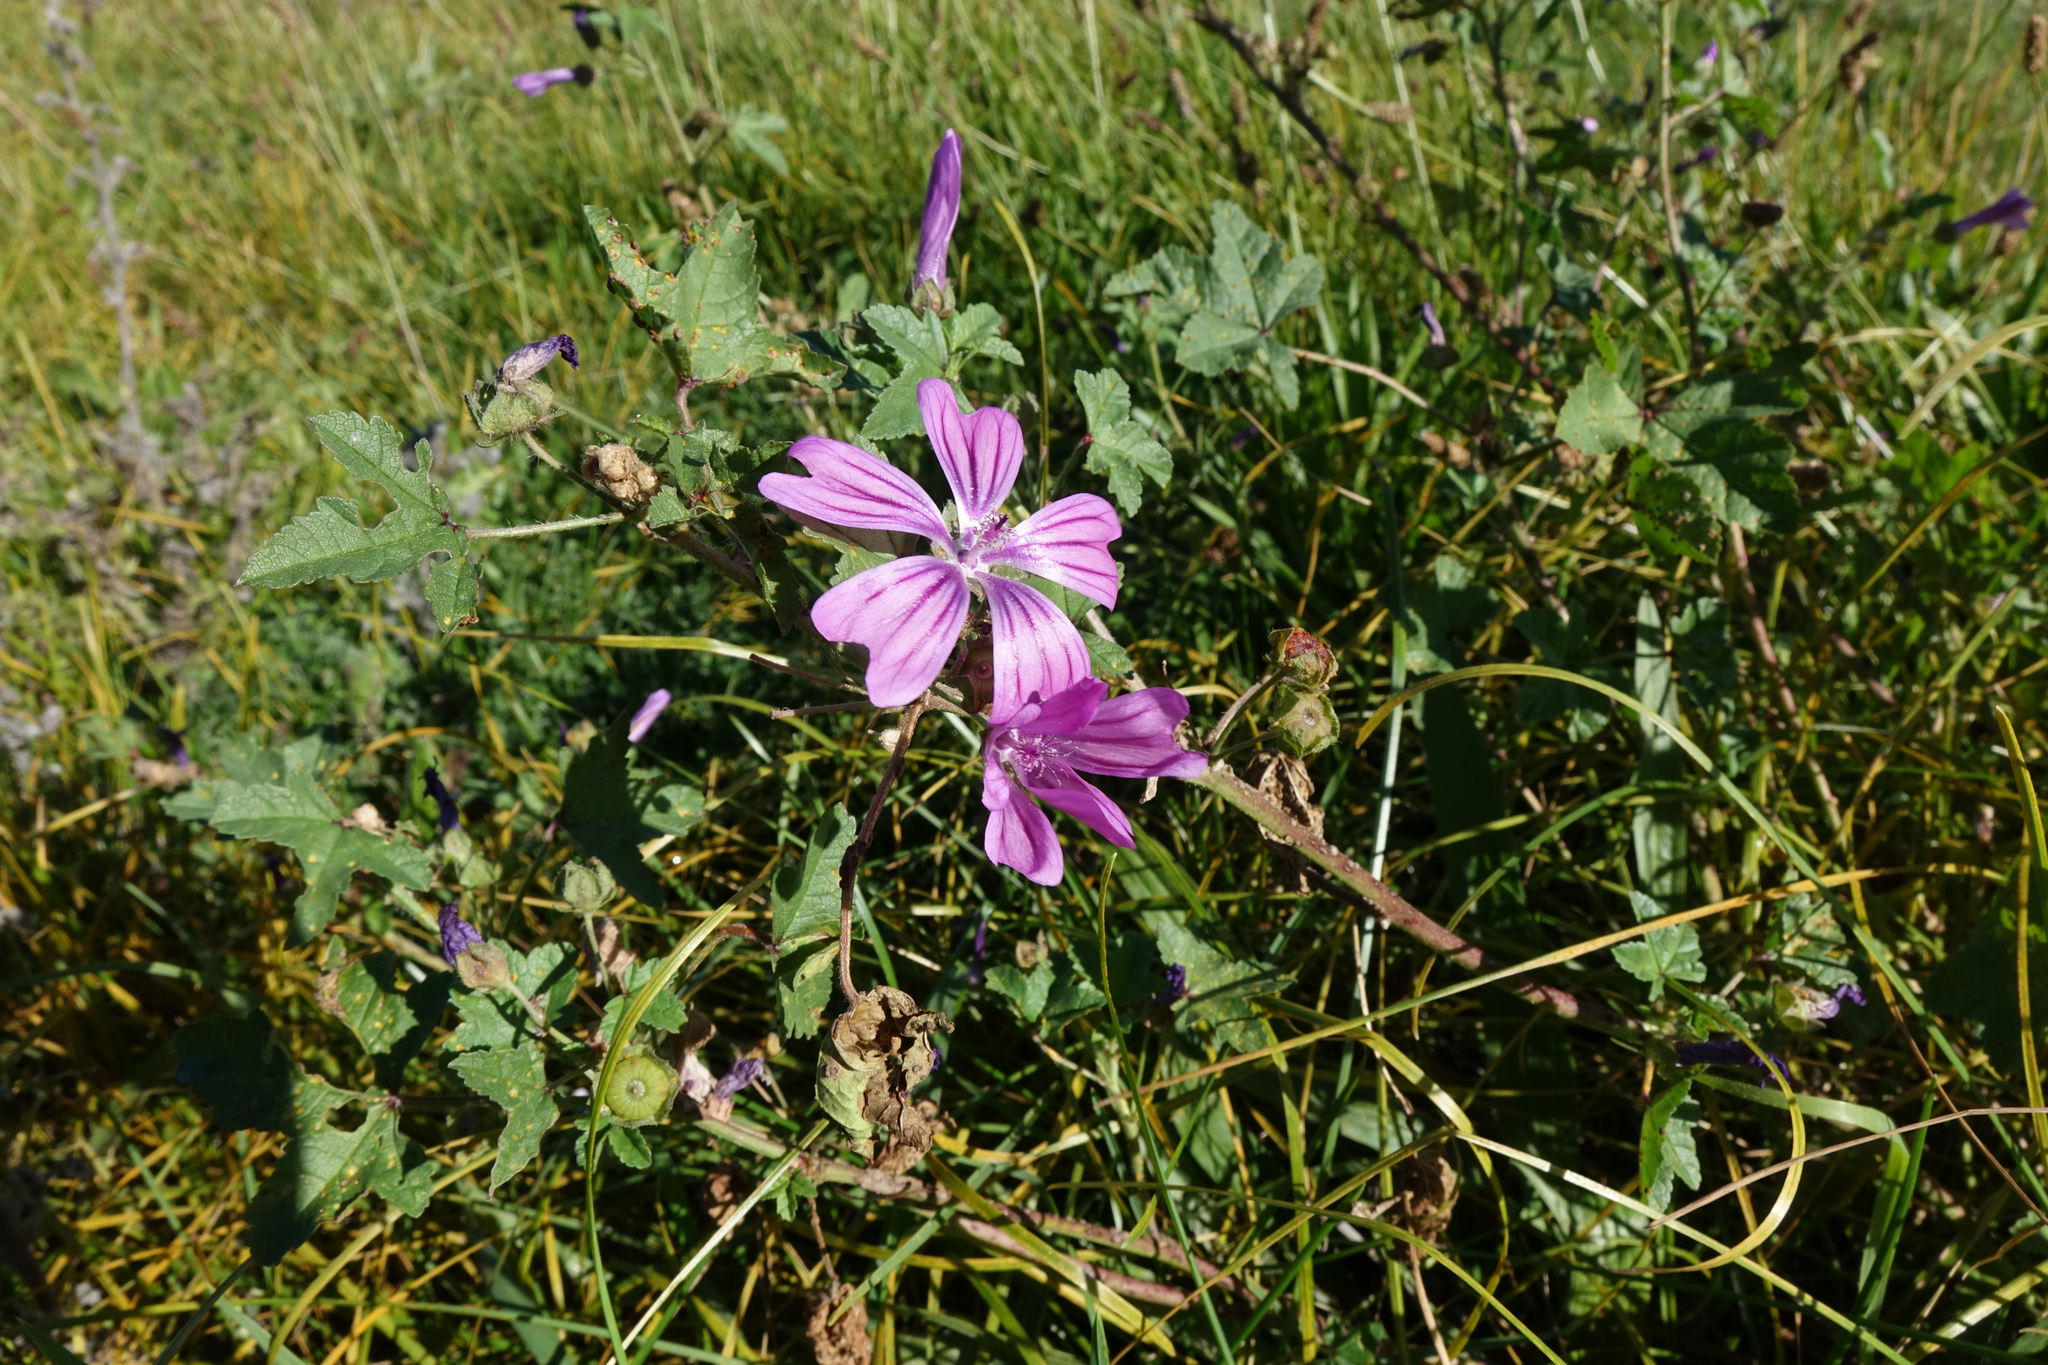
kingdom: Plantae
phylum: Tracheophyta
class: Magnoliopsida
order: Malvales
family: Malvaceae
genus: Malva
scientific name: Malva sylvestris
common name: Common mallow
